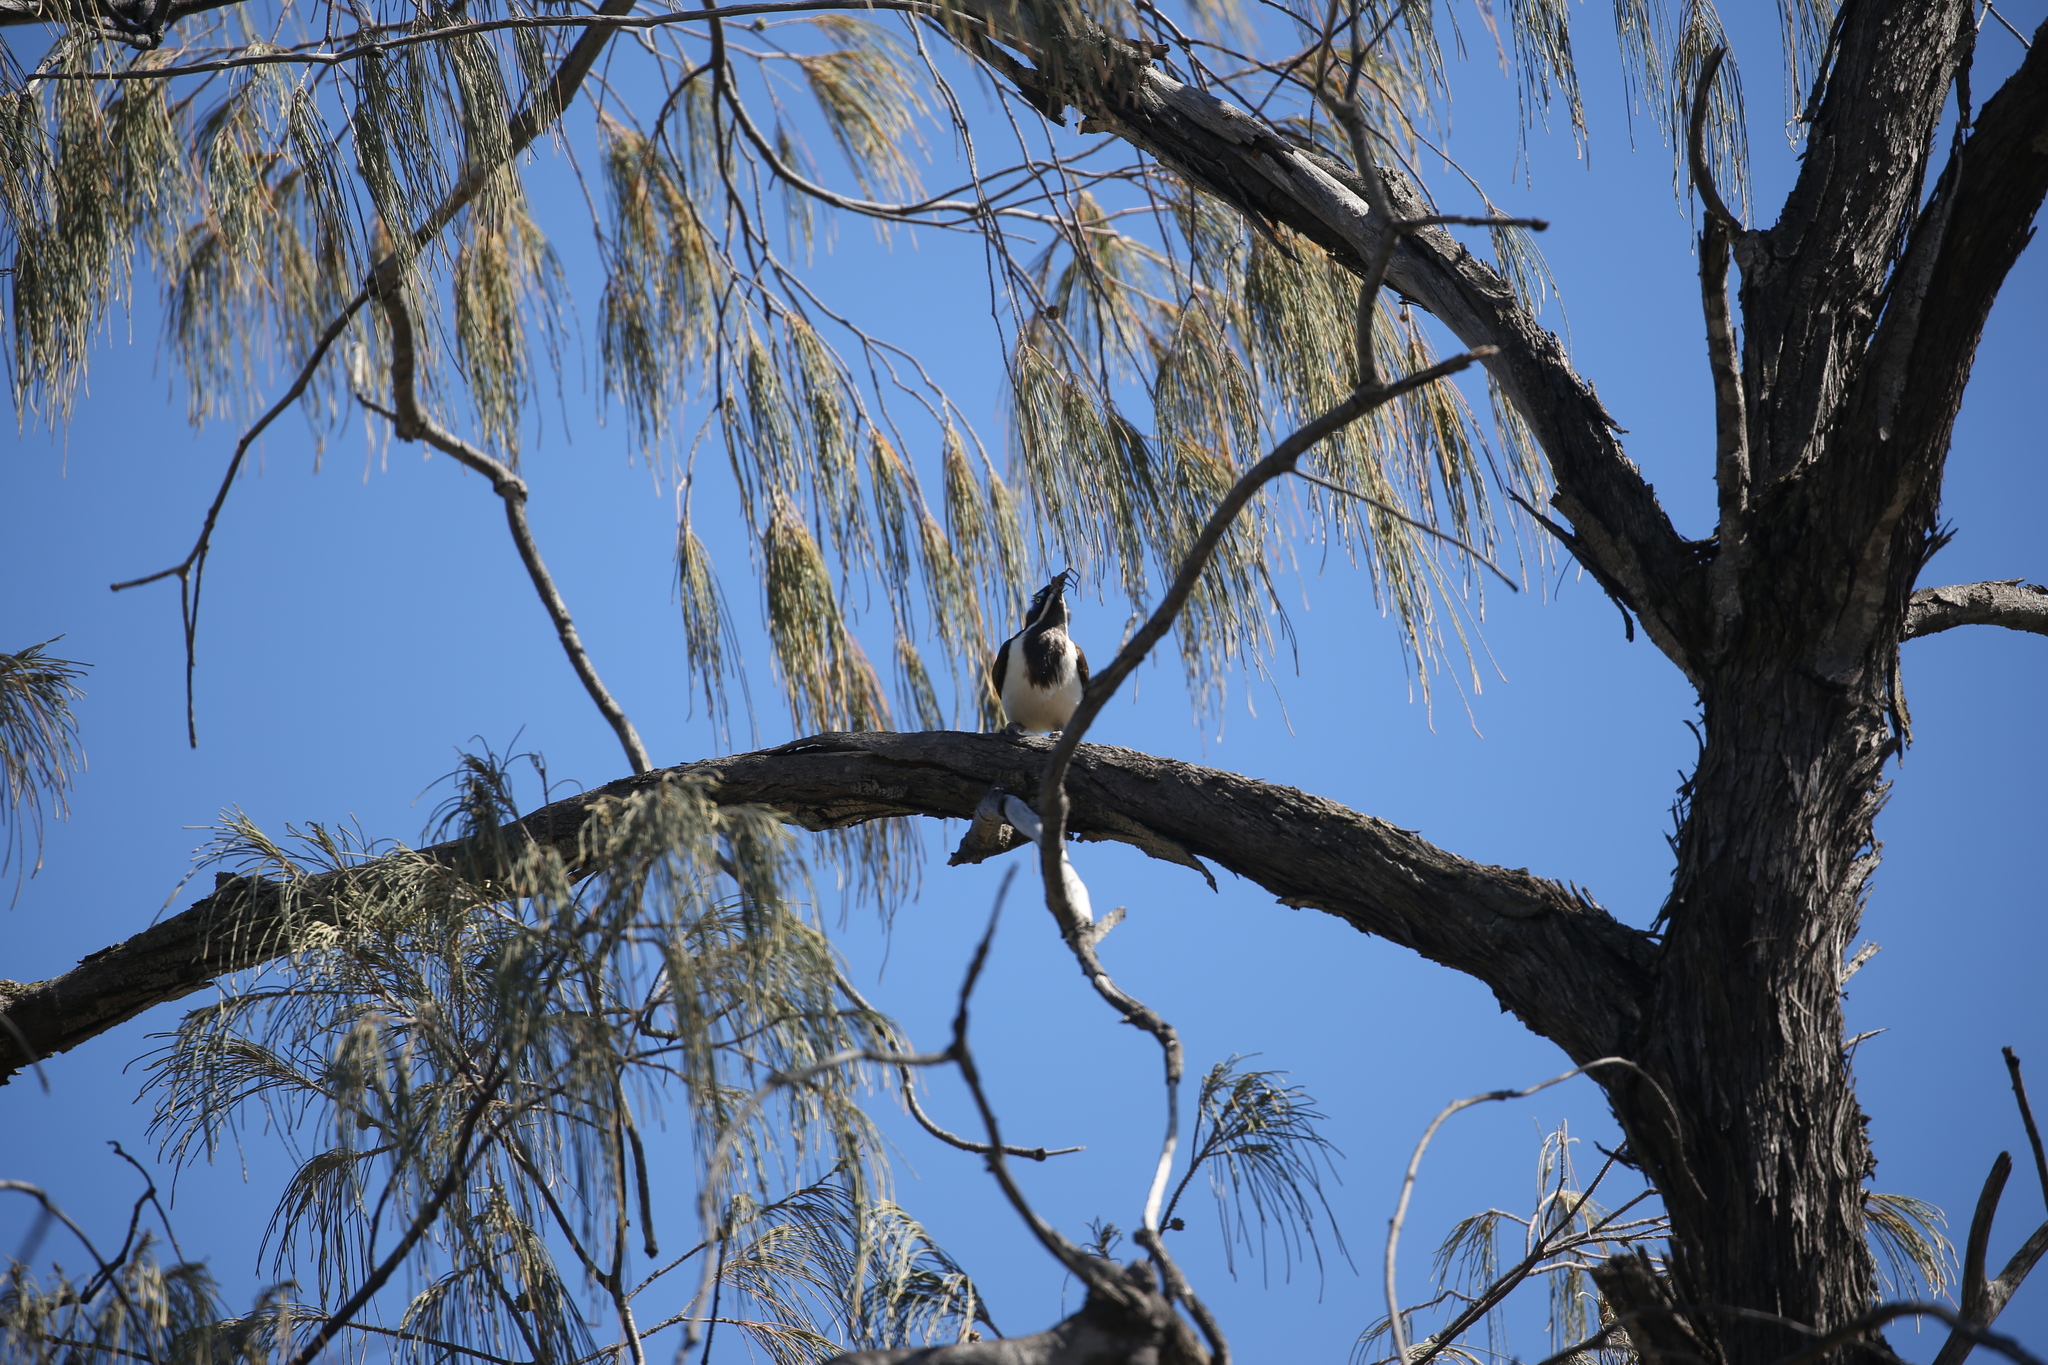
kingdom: Animalia
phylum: Chordata
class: Aves
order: Passeriformes
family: Meliphagidae
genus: Entomyzon
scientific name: Entomyzon cyanotis
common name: Blue-faced honeyeater
